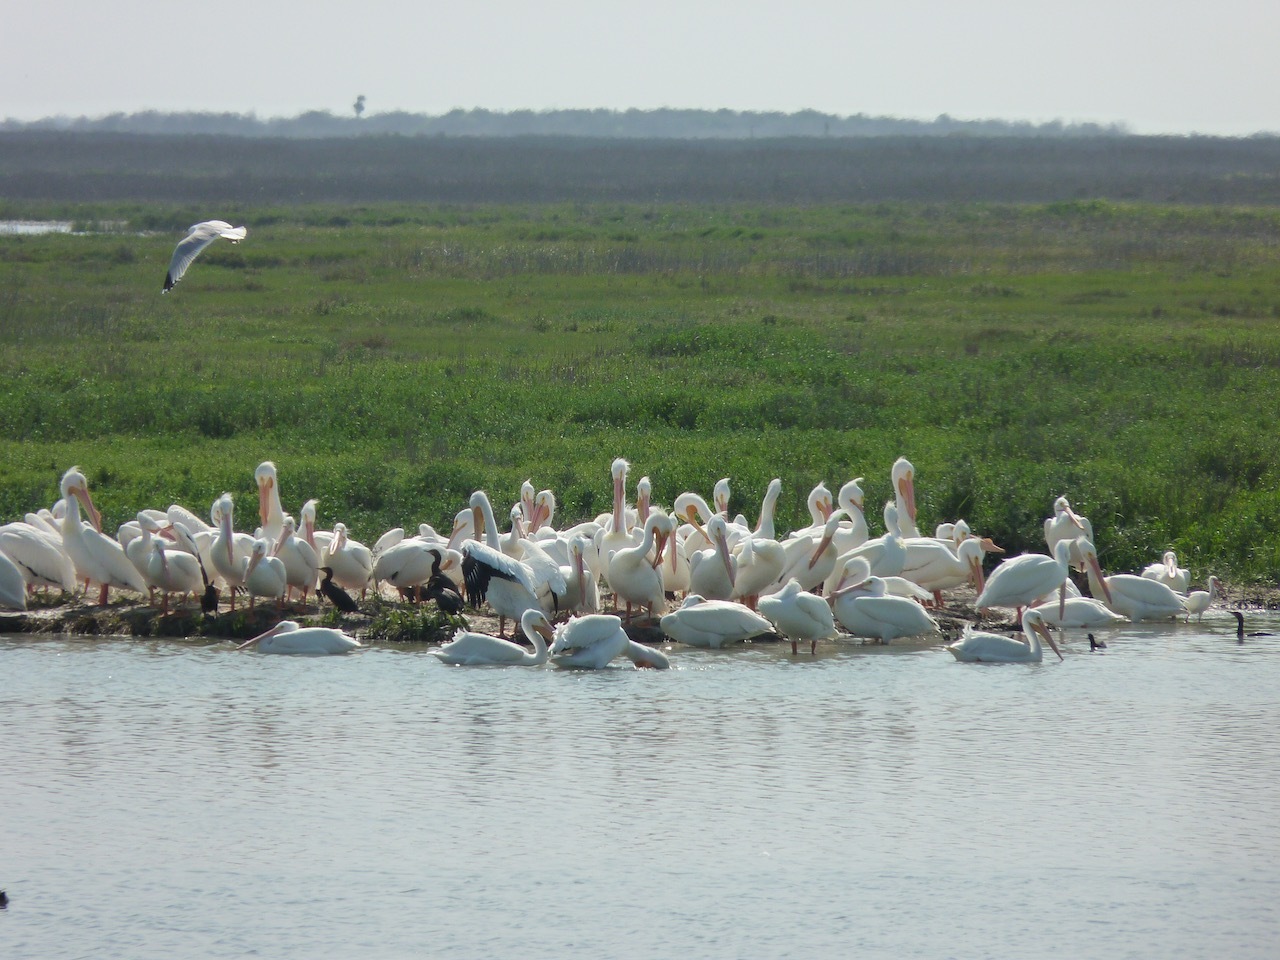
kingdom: Animalia
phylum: Chordata
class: Aves
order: Pelecaniformes
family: Pelecanidae
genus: Pelecanus
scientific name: Pelecanus erythrorhynchos
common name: American white pelican
